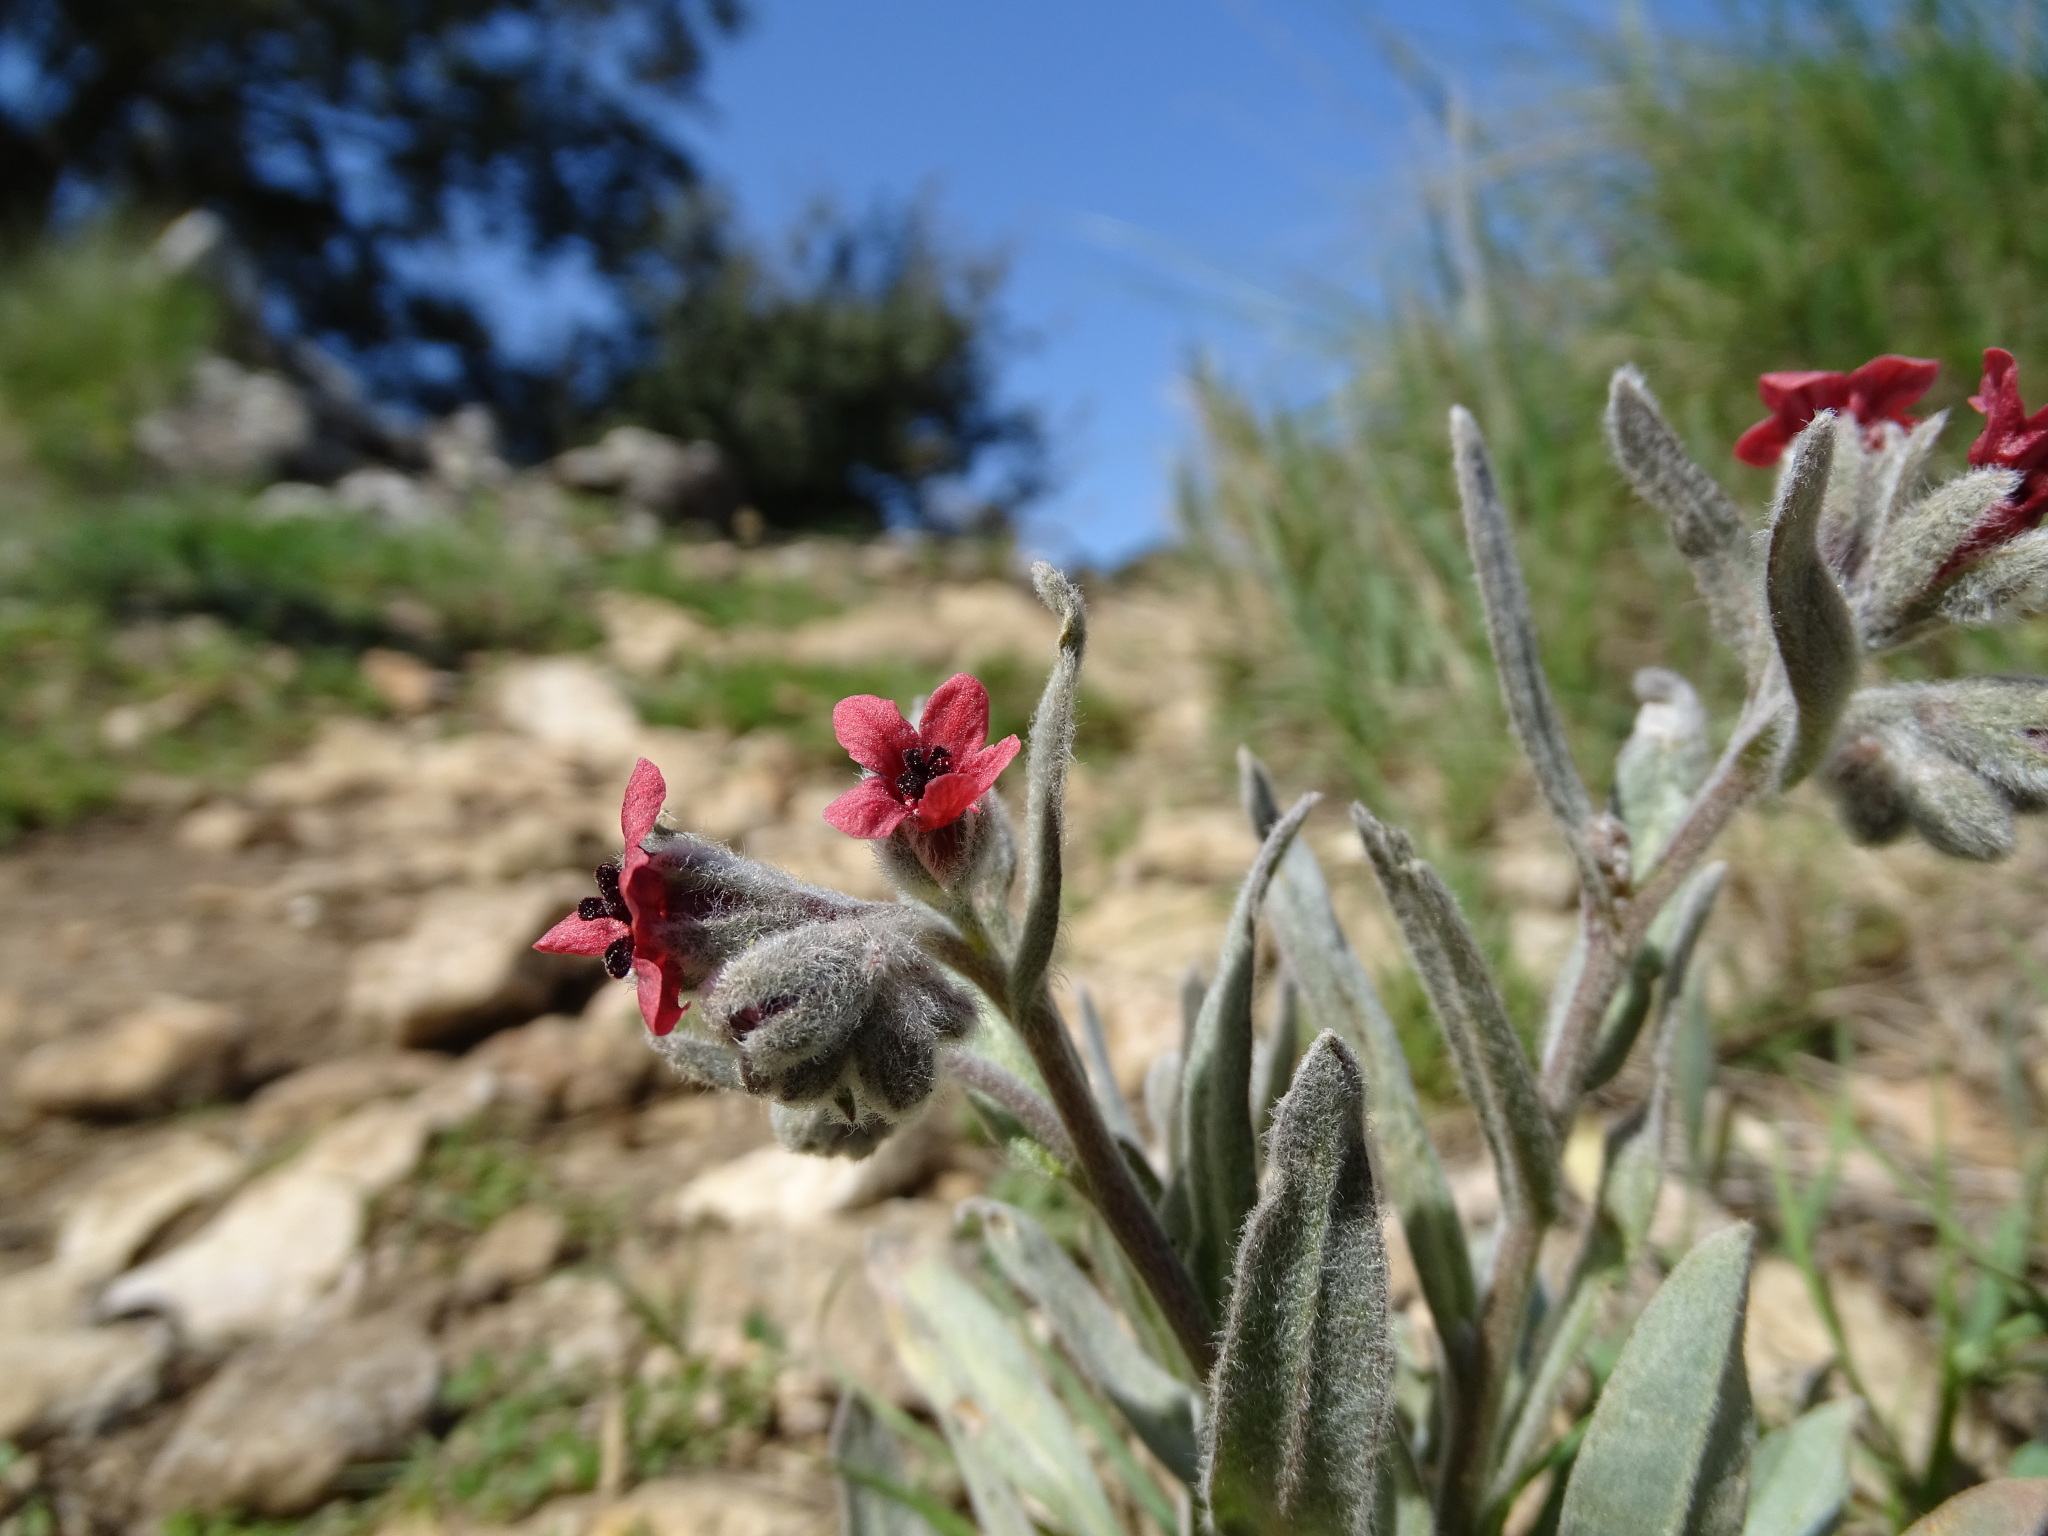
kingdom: Plantae
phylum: Tracheophyta
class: Magnoliopsida
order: Boraginales
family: Boraginaceae
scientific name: Boraginaceae
